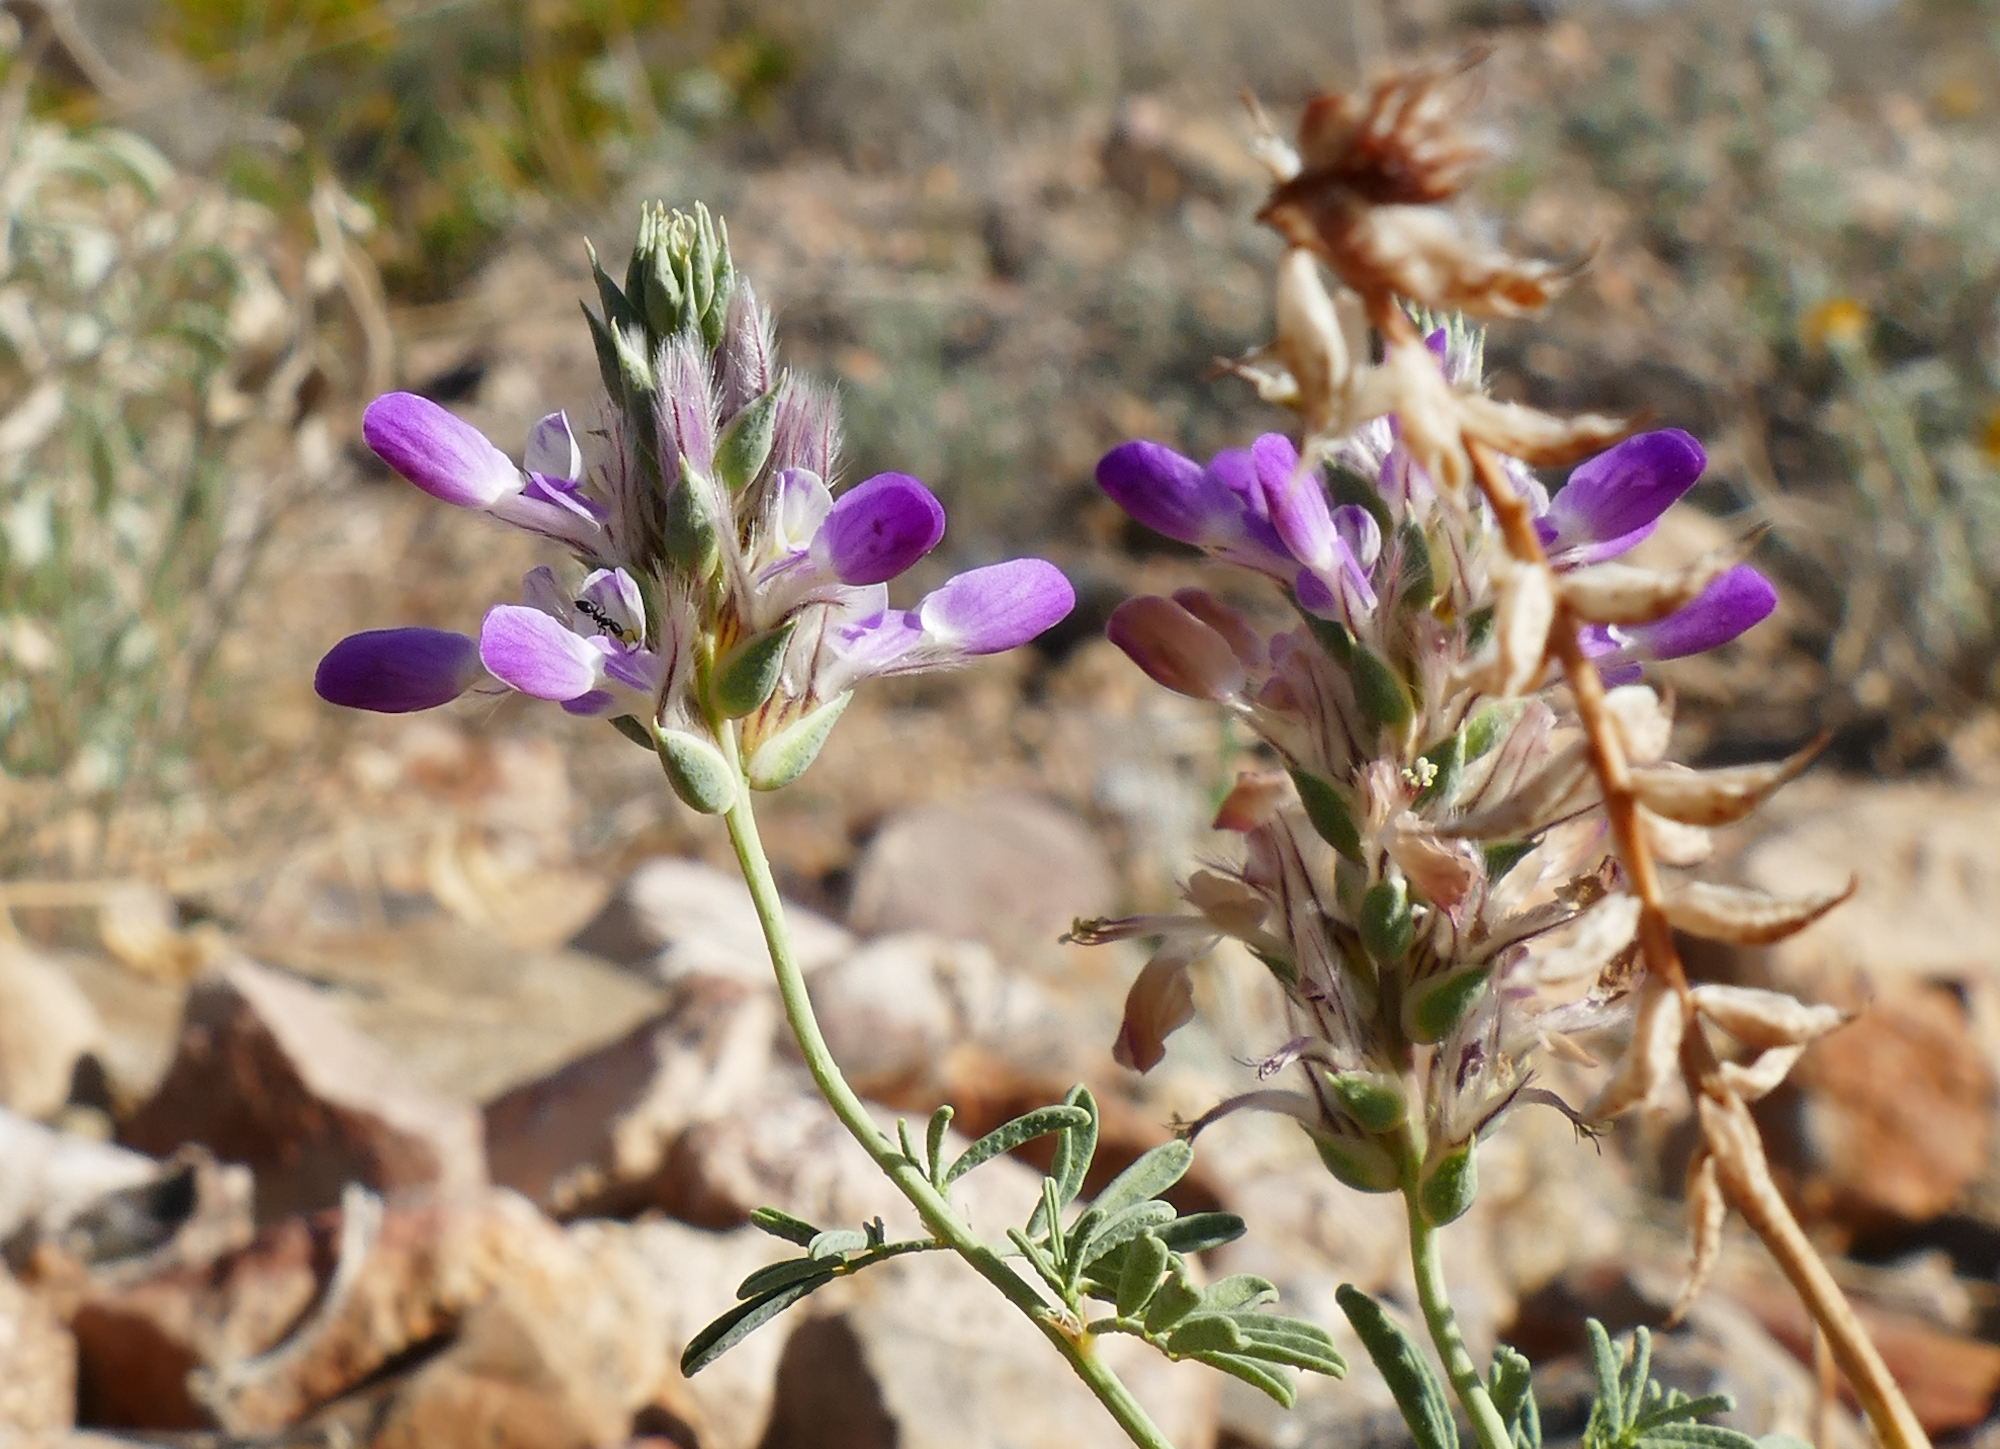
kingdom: Plantae
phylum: Tracheophyta
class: Magnoliopsida
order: Fabales
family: Fabaceae
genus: Dalea
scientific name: Dalea pogonathera
